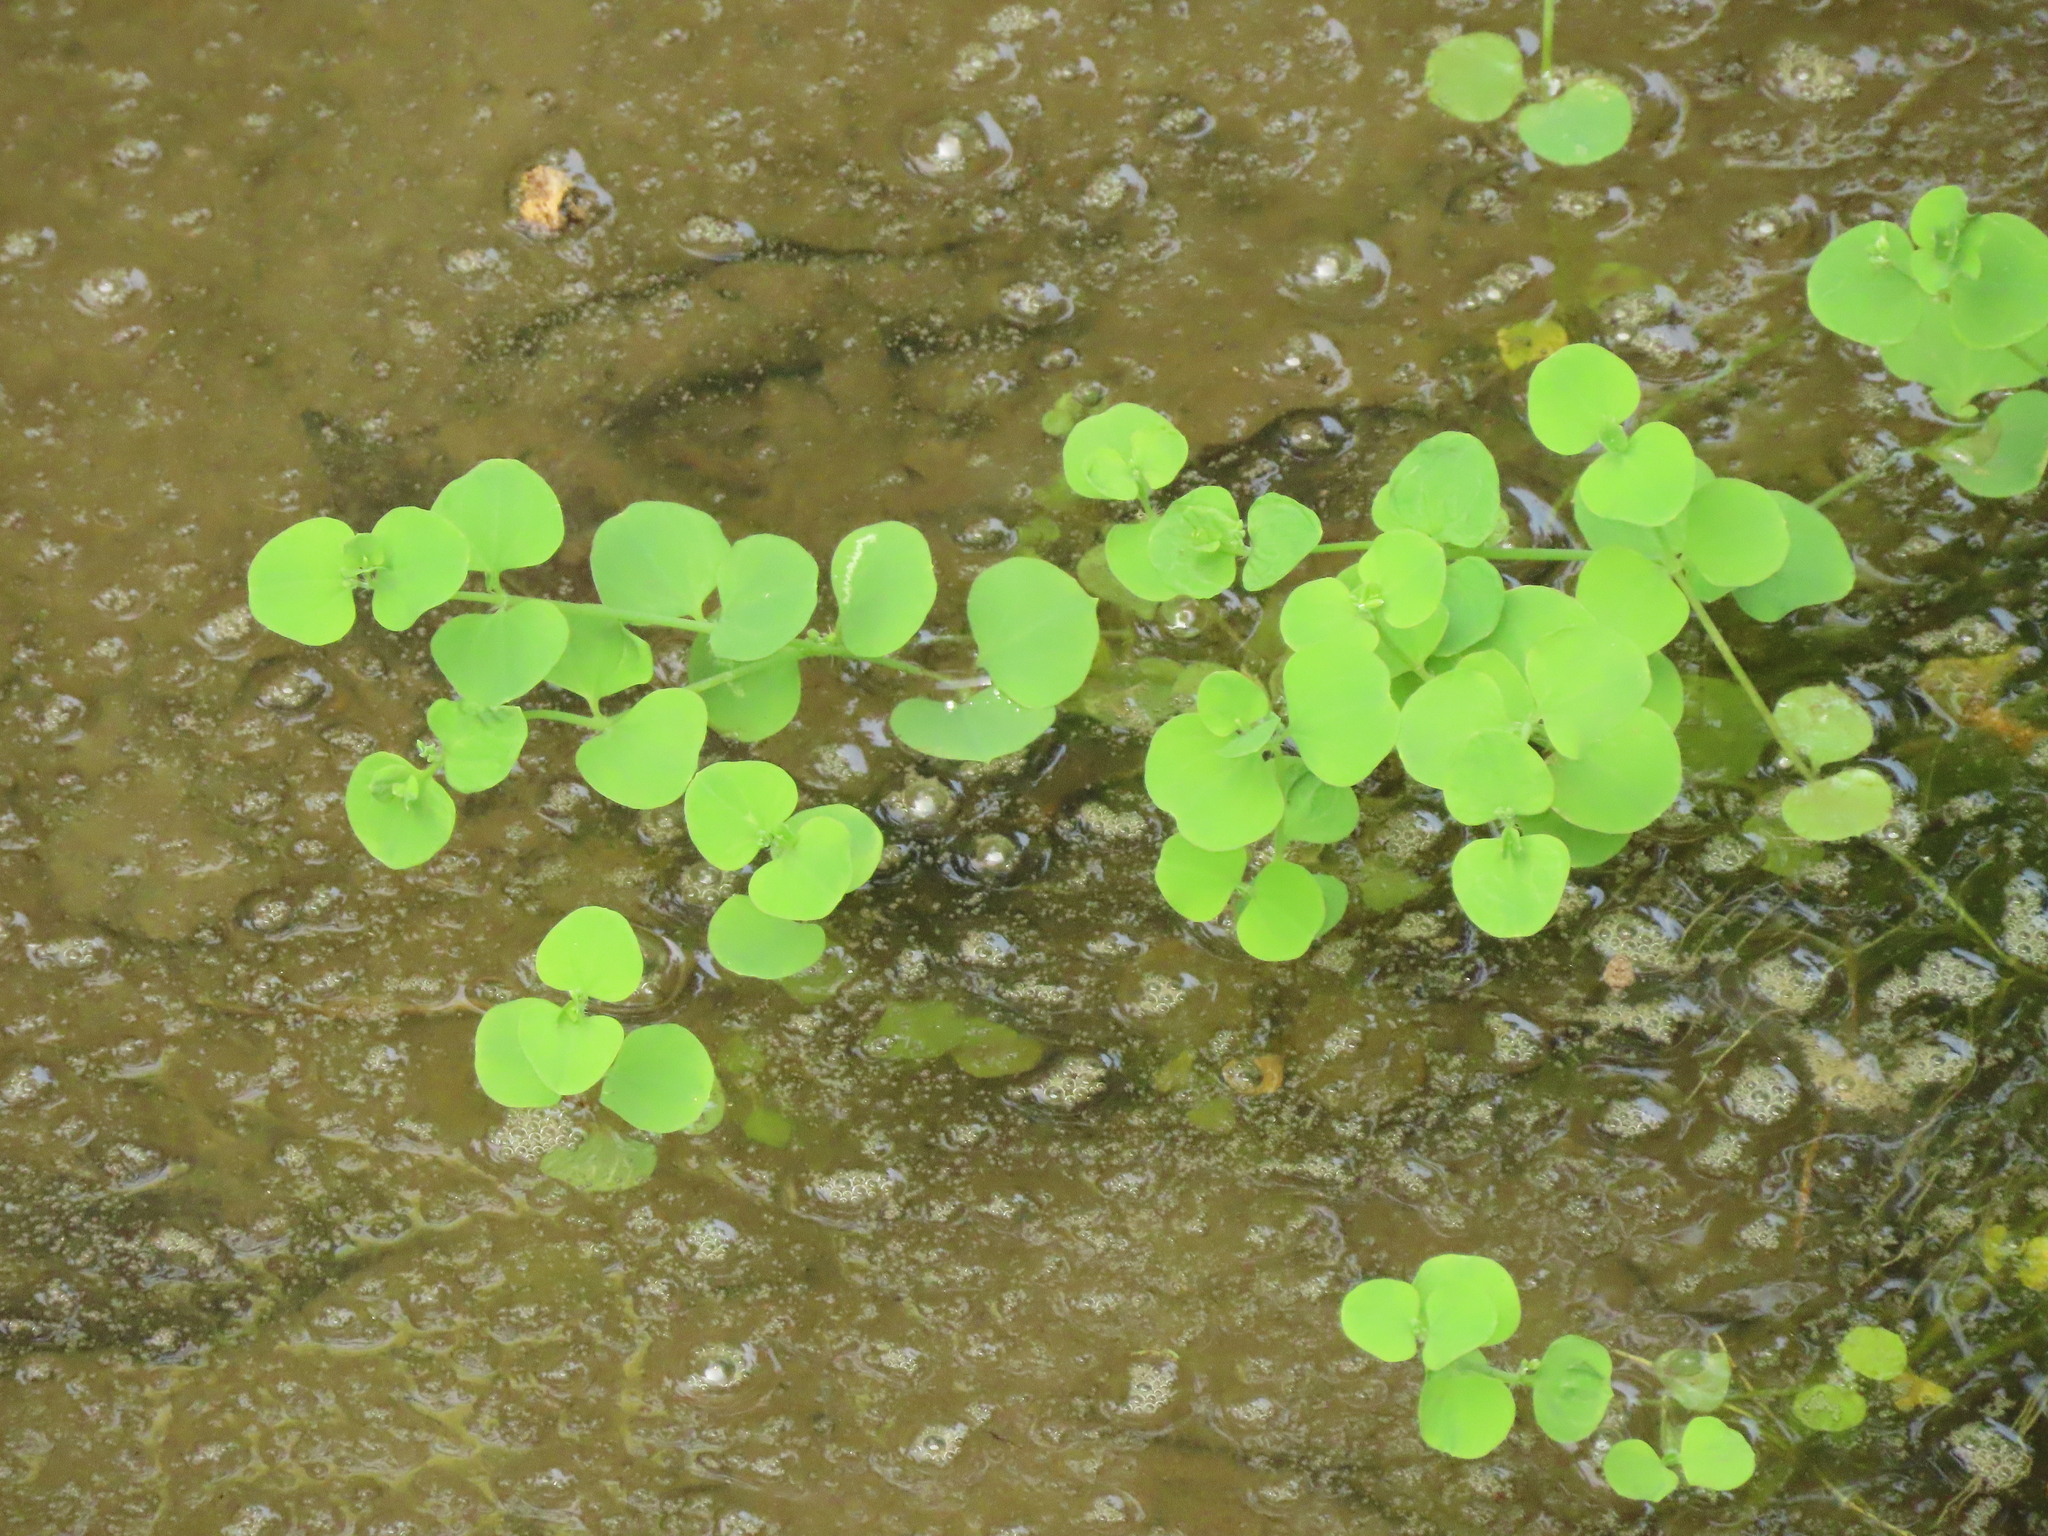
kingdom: Plantae
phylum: Tracheophyta
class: Magnoliopsida
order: Caryophyllales
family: Caryophyllaceae
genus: Drymaria
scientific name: Drymaria cordata
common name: Whitesnow
